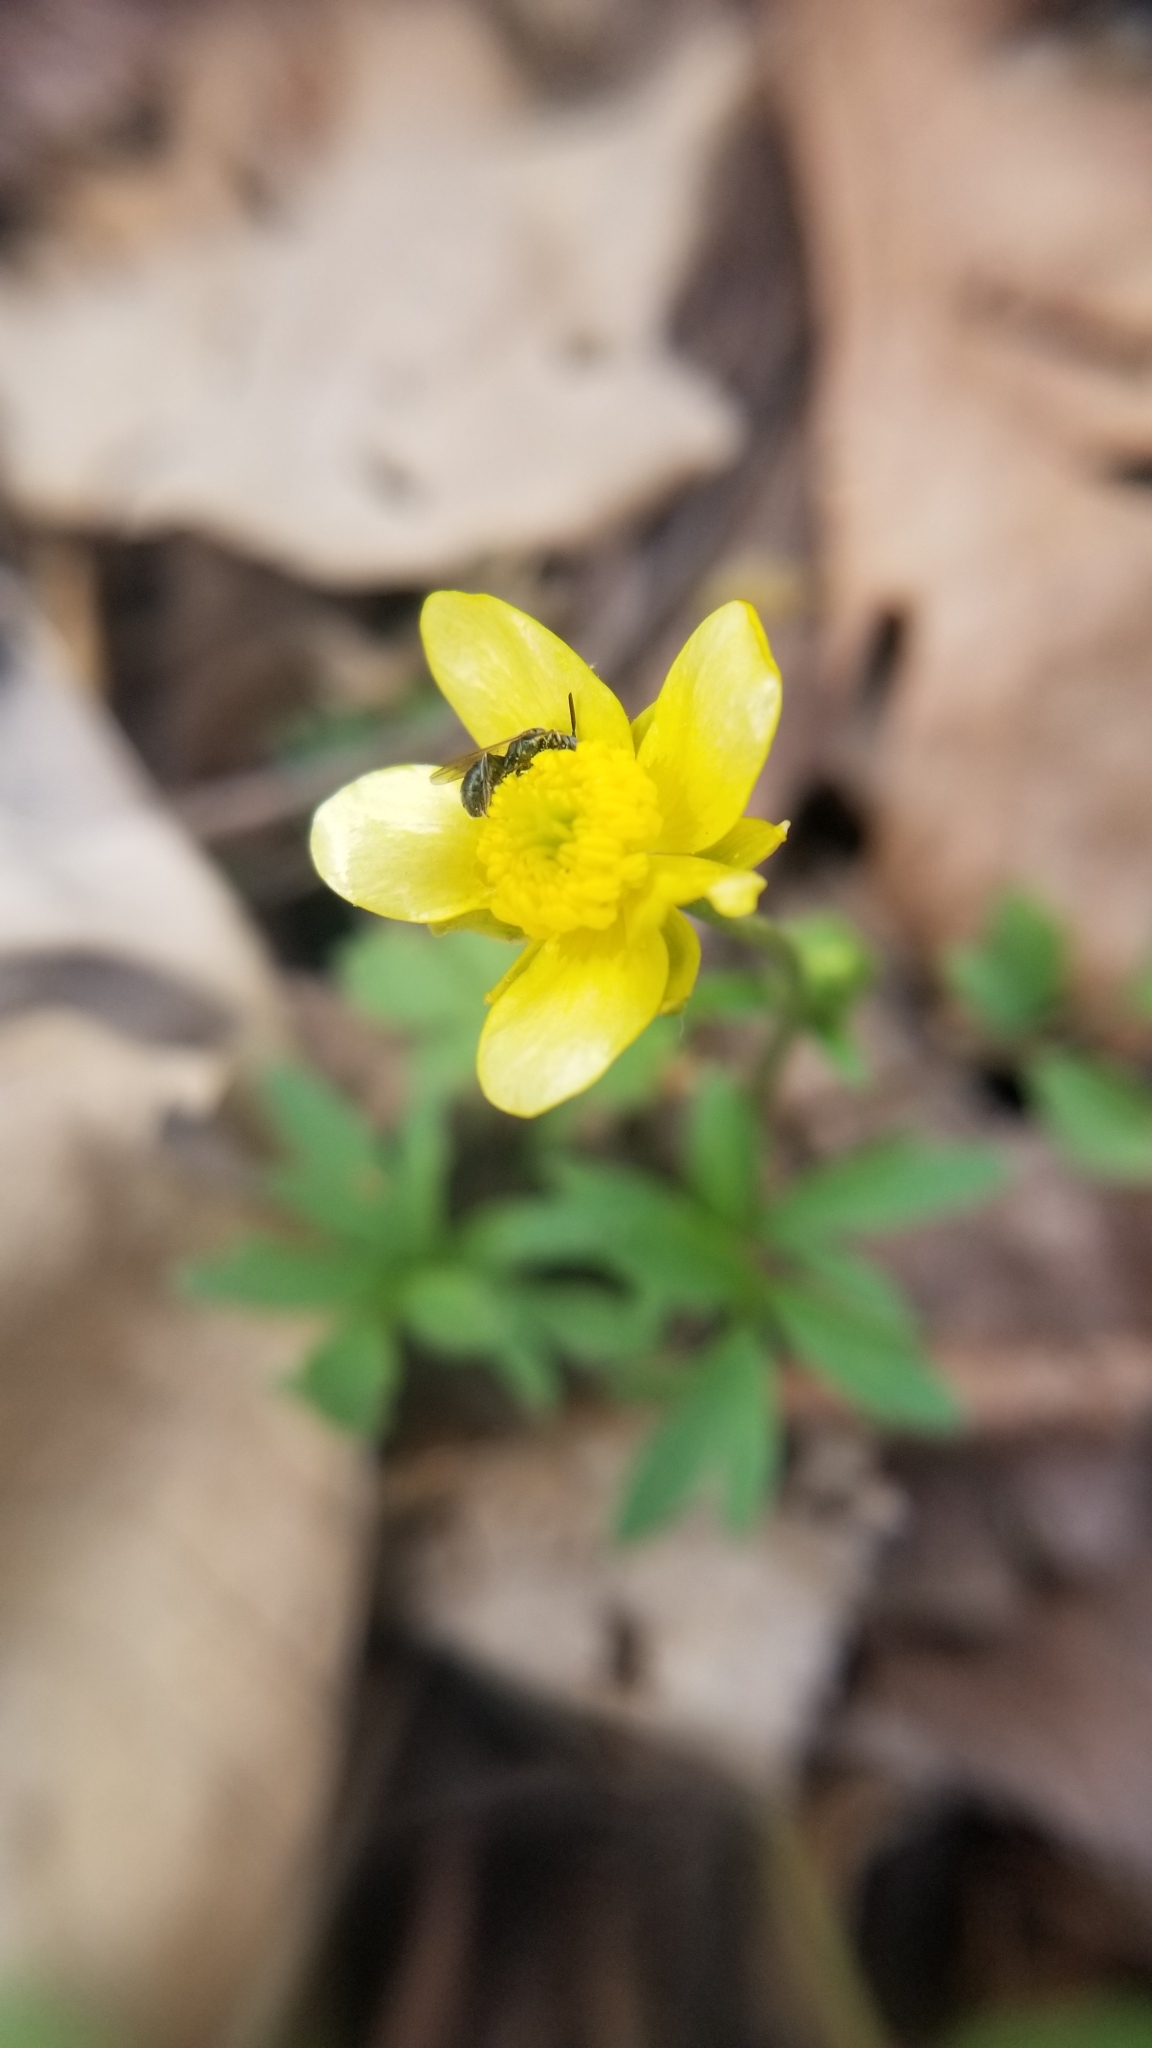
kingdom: Plantae
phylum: Tracheophyta
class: Magnoliopsida
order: Ranunculales
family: Ranunculaceae
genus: Ranunculus
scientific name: Ranunculus fascicularis
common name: Early buttercup
